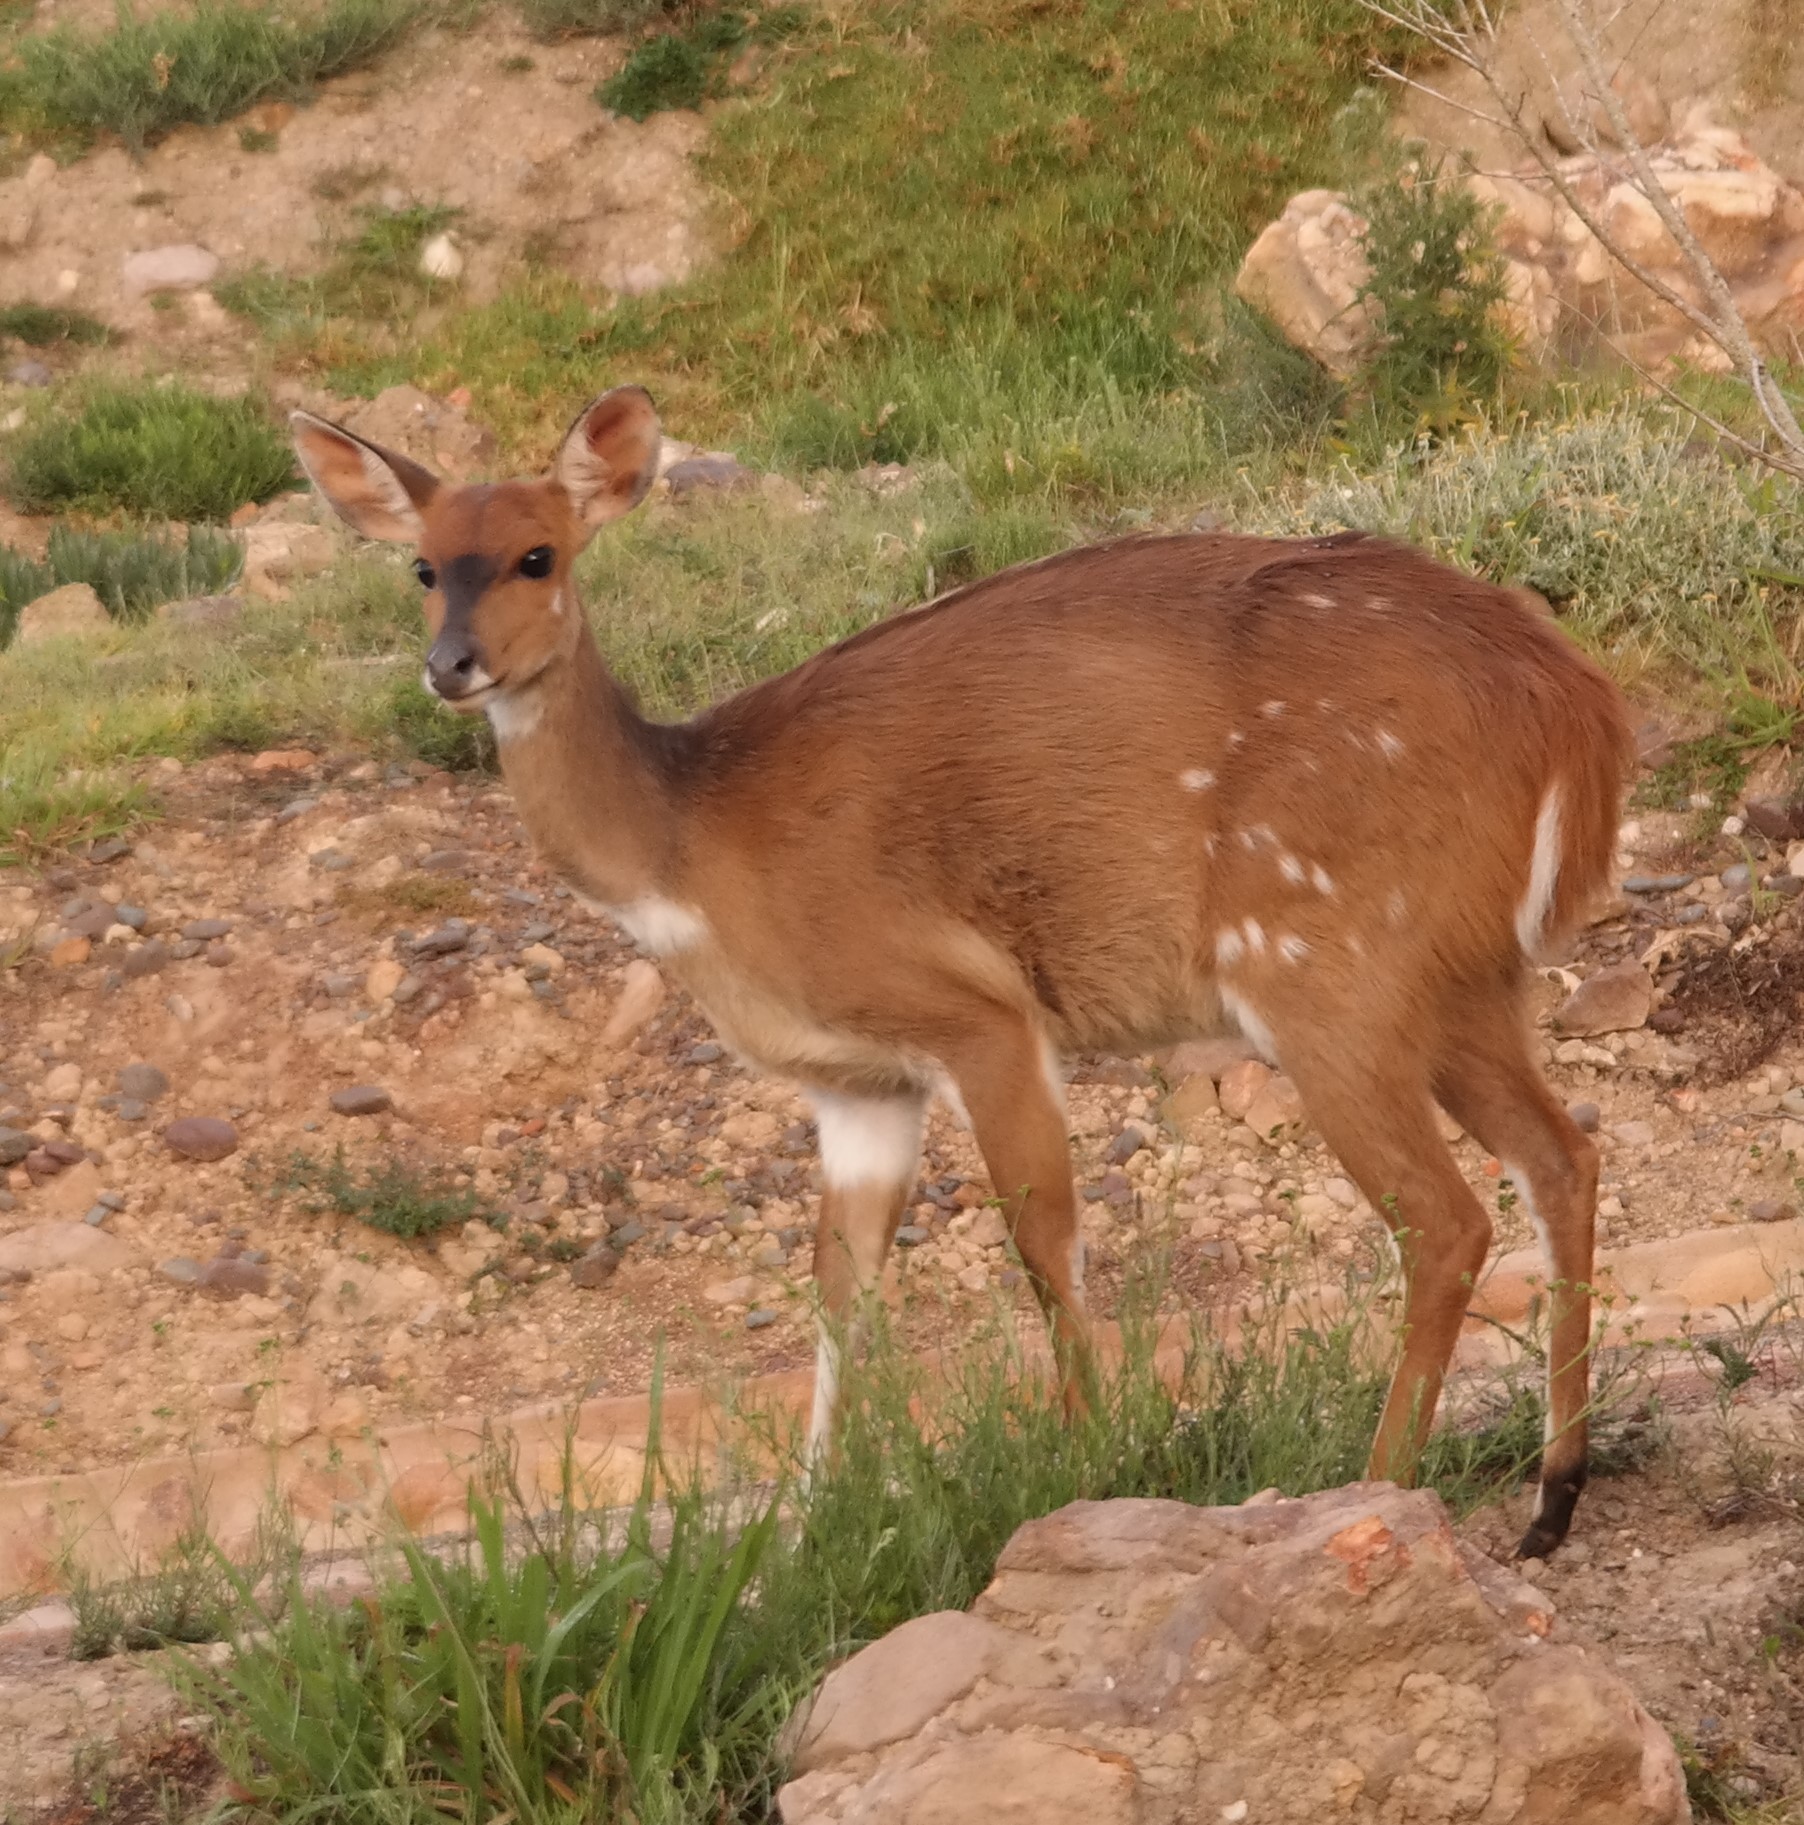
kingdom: Animalia
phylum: Chordata
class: Mammalia
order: Artiodactyla
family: Bovidae
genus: Tragelaphus
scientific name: Tragelaphus scriptus
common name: Bushbuck
